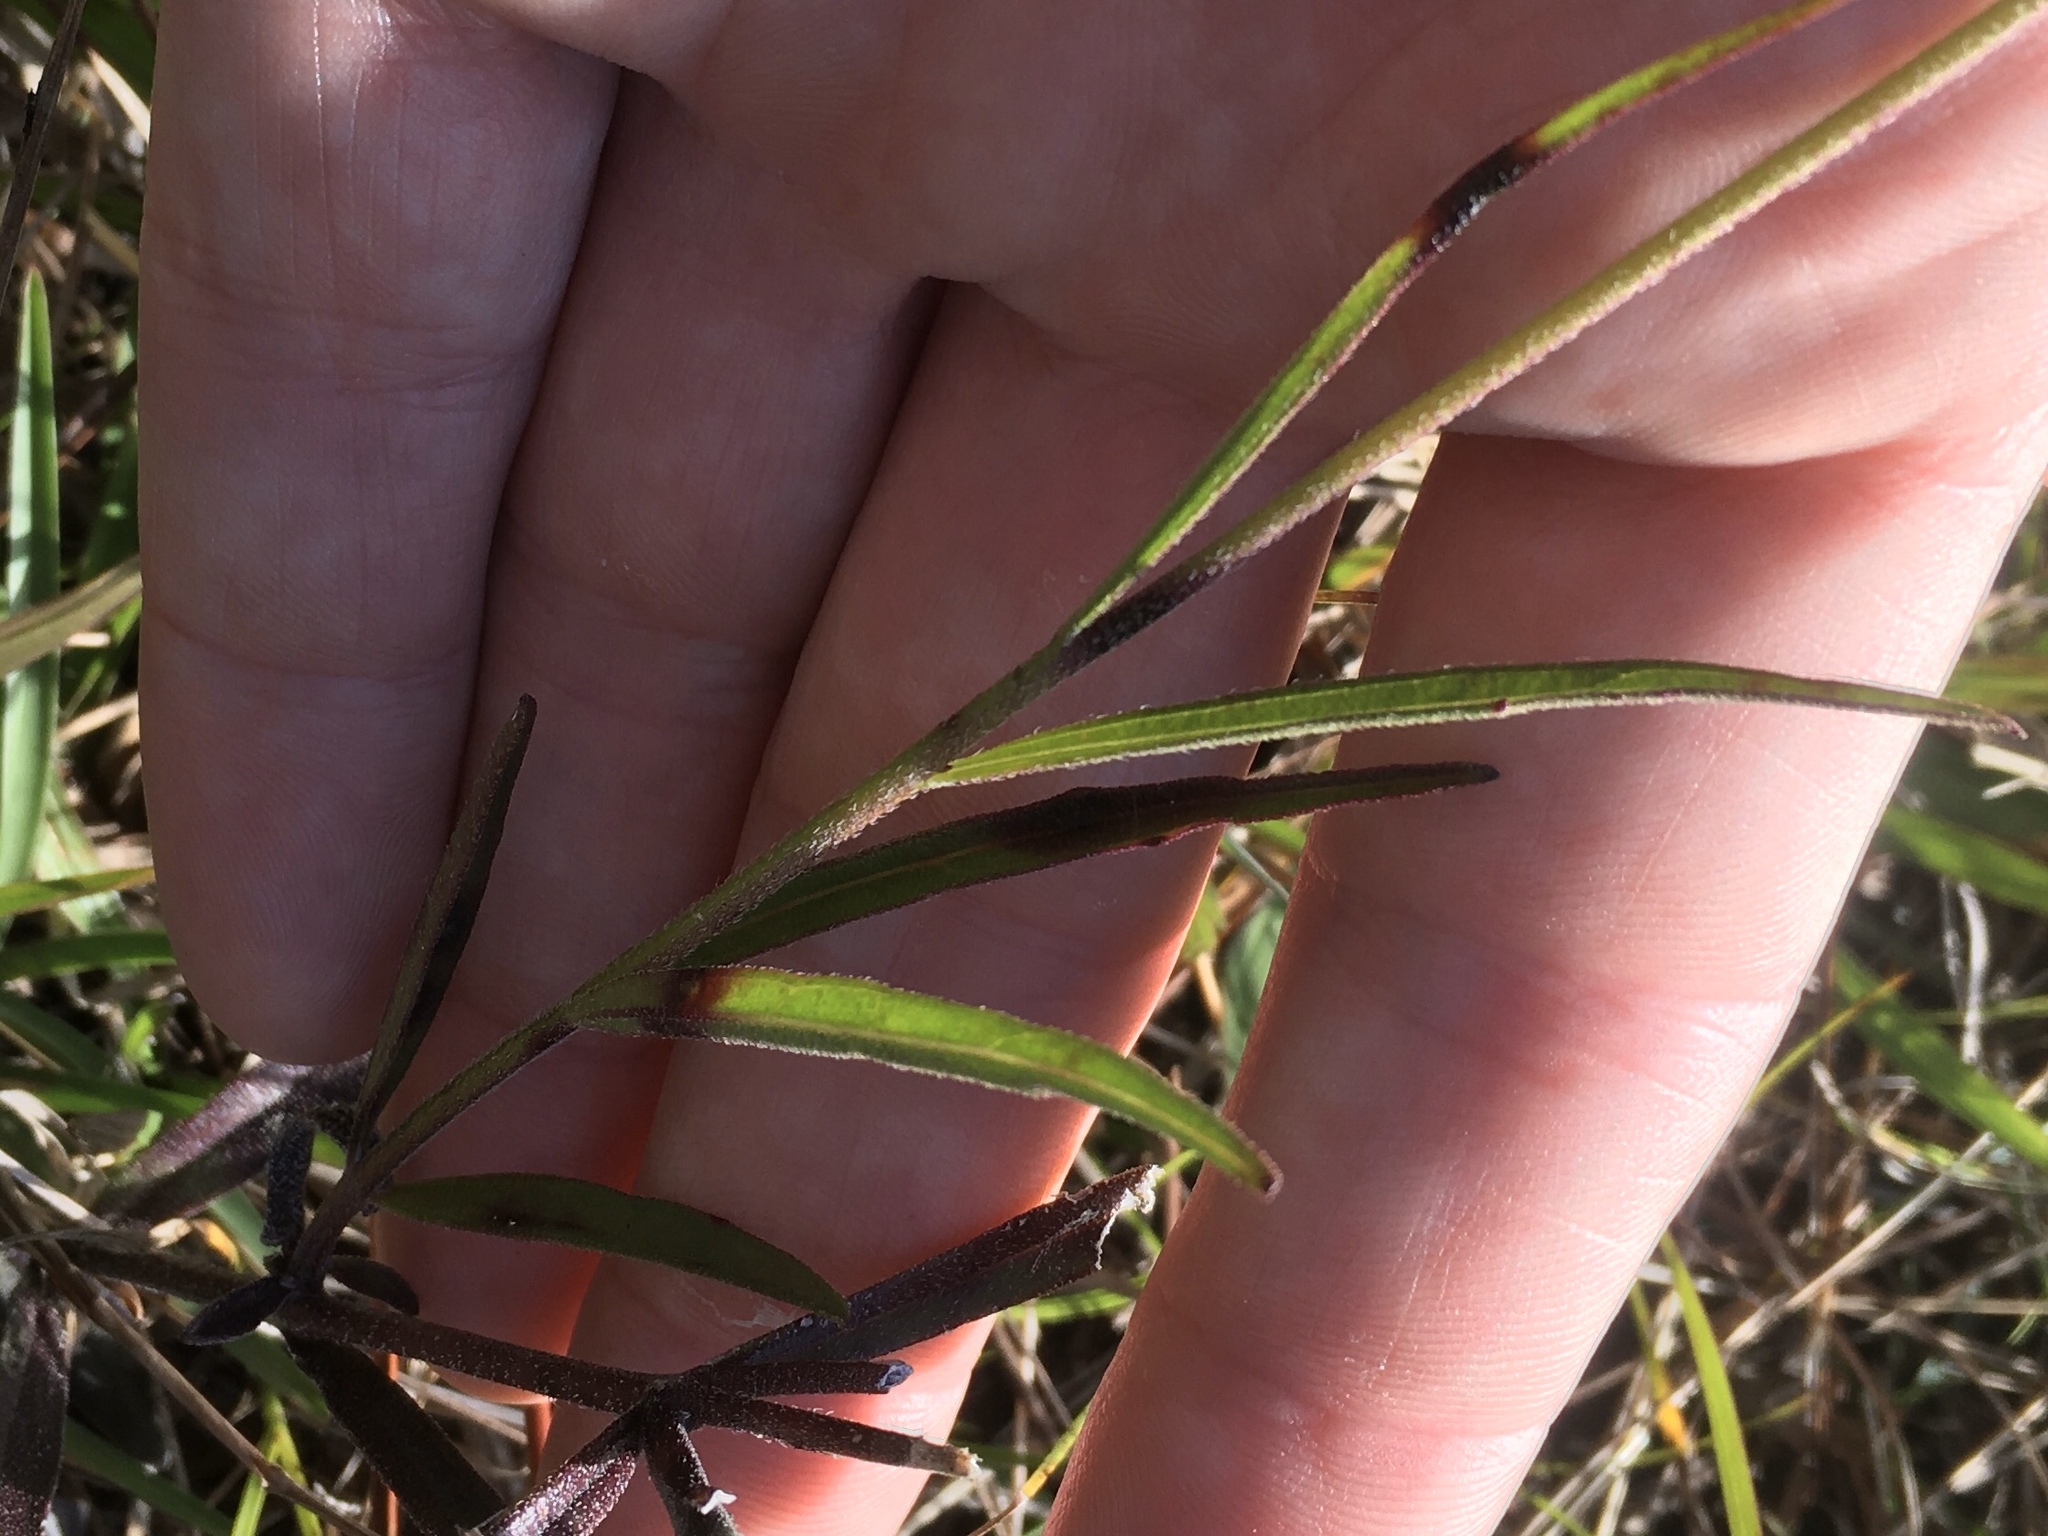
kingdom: Plantae
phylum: Tracheophyta
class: Magnoliopsida
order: Lamiales
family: Orobanchaceae
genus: Buchnera
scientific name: Buchnera floridana
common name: Florida bluehearts
